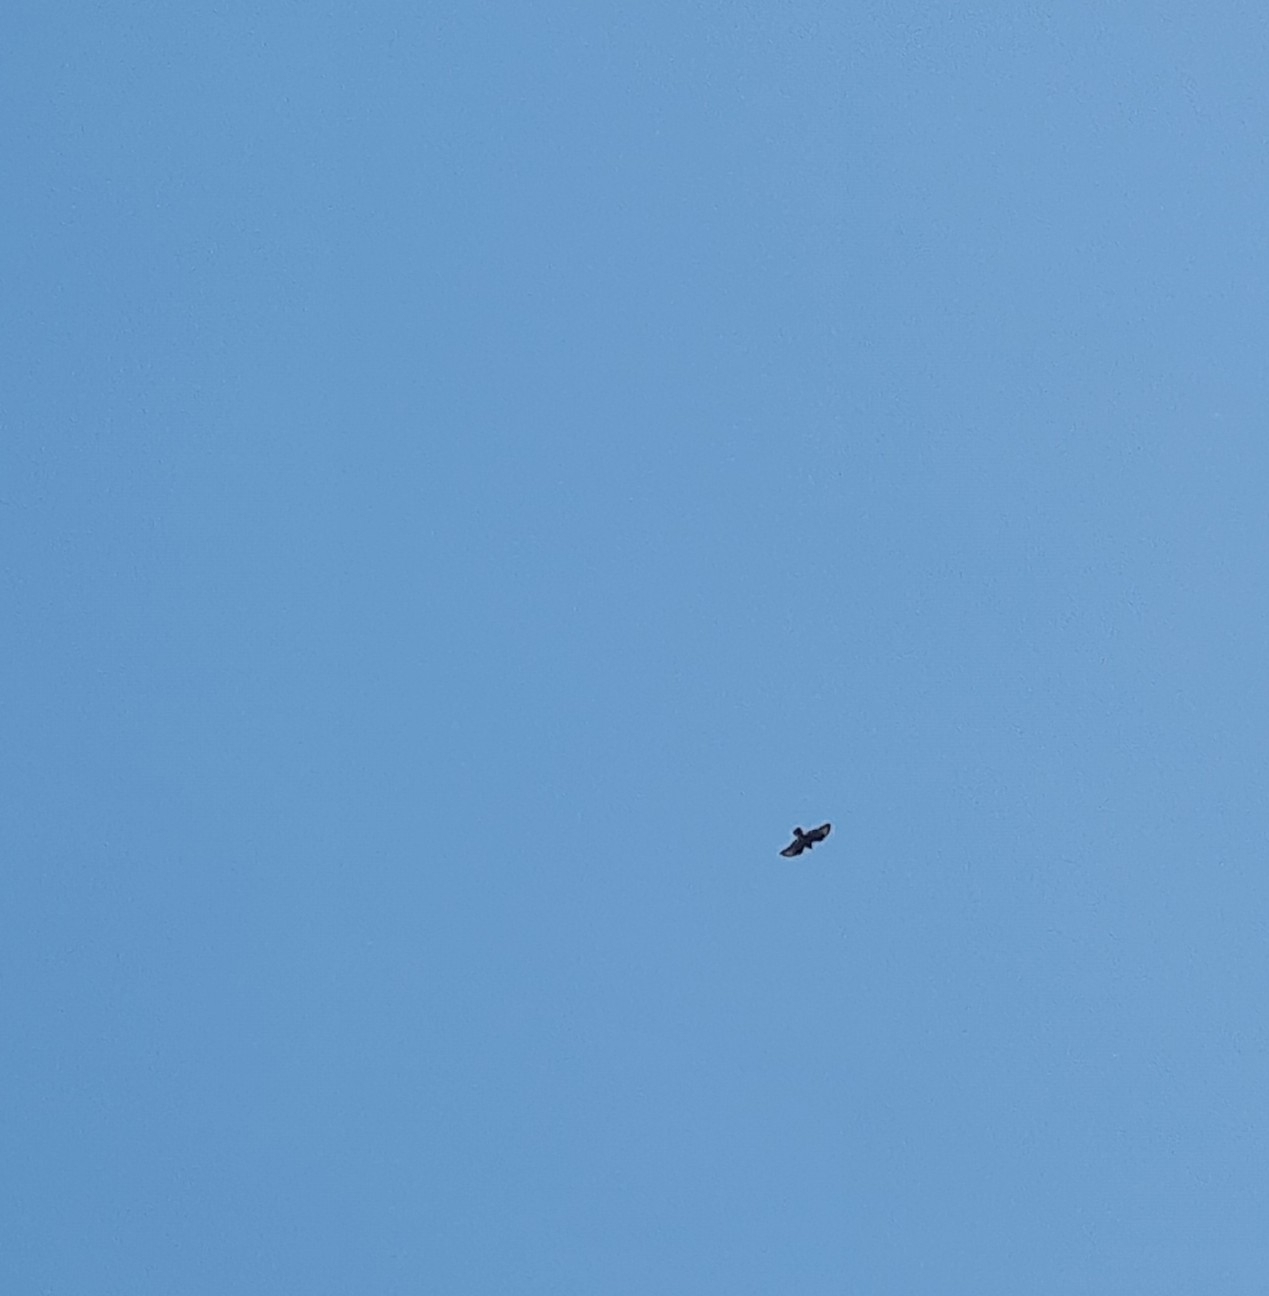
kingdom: Animalia
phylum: Chordata
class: Aves
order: Accipitriformes
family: Accipitridae
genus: Buteo
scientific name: Buteo buteo
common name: Common buzzard
